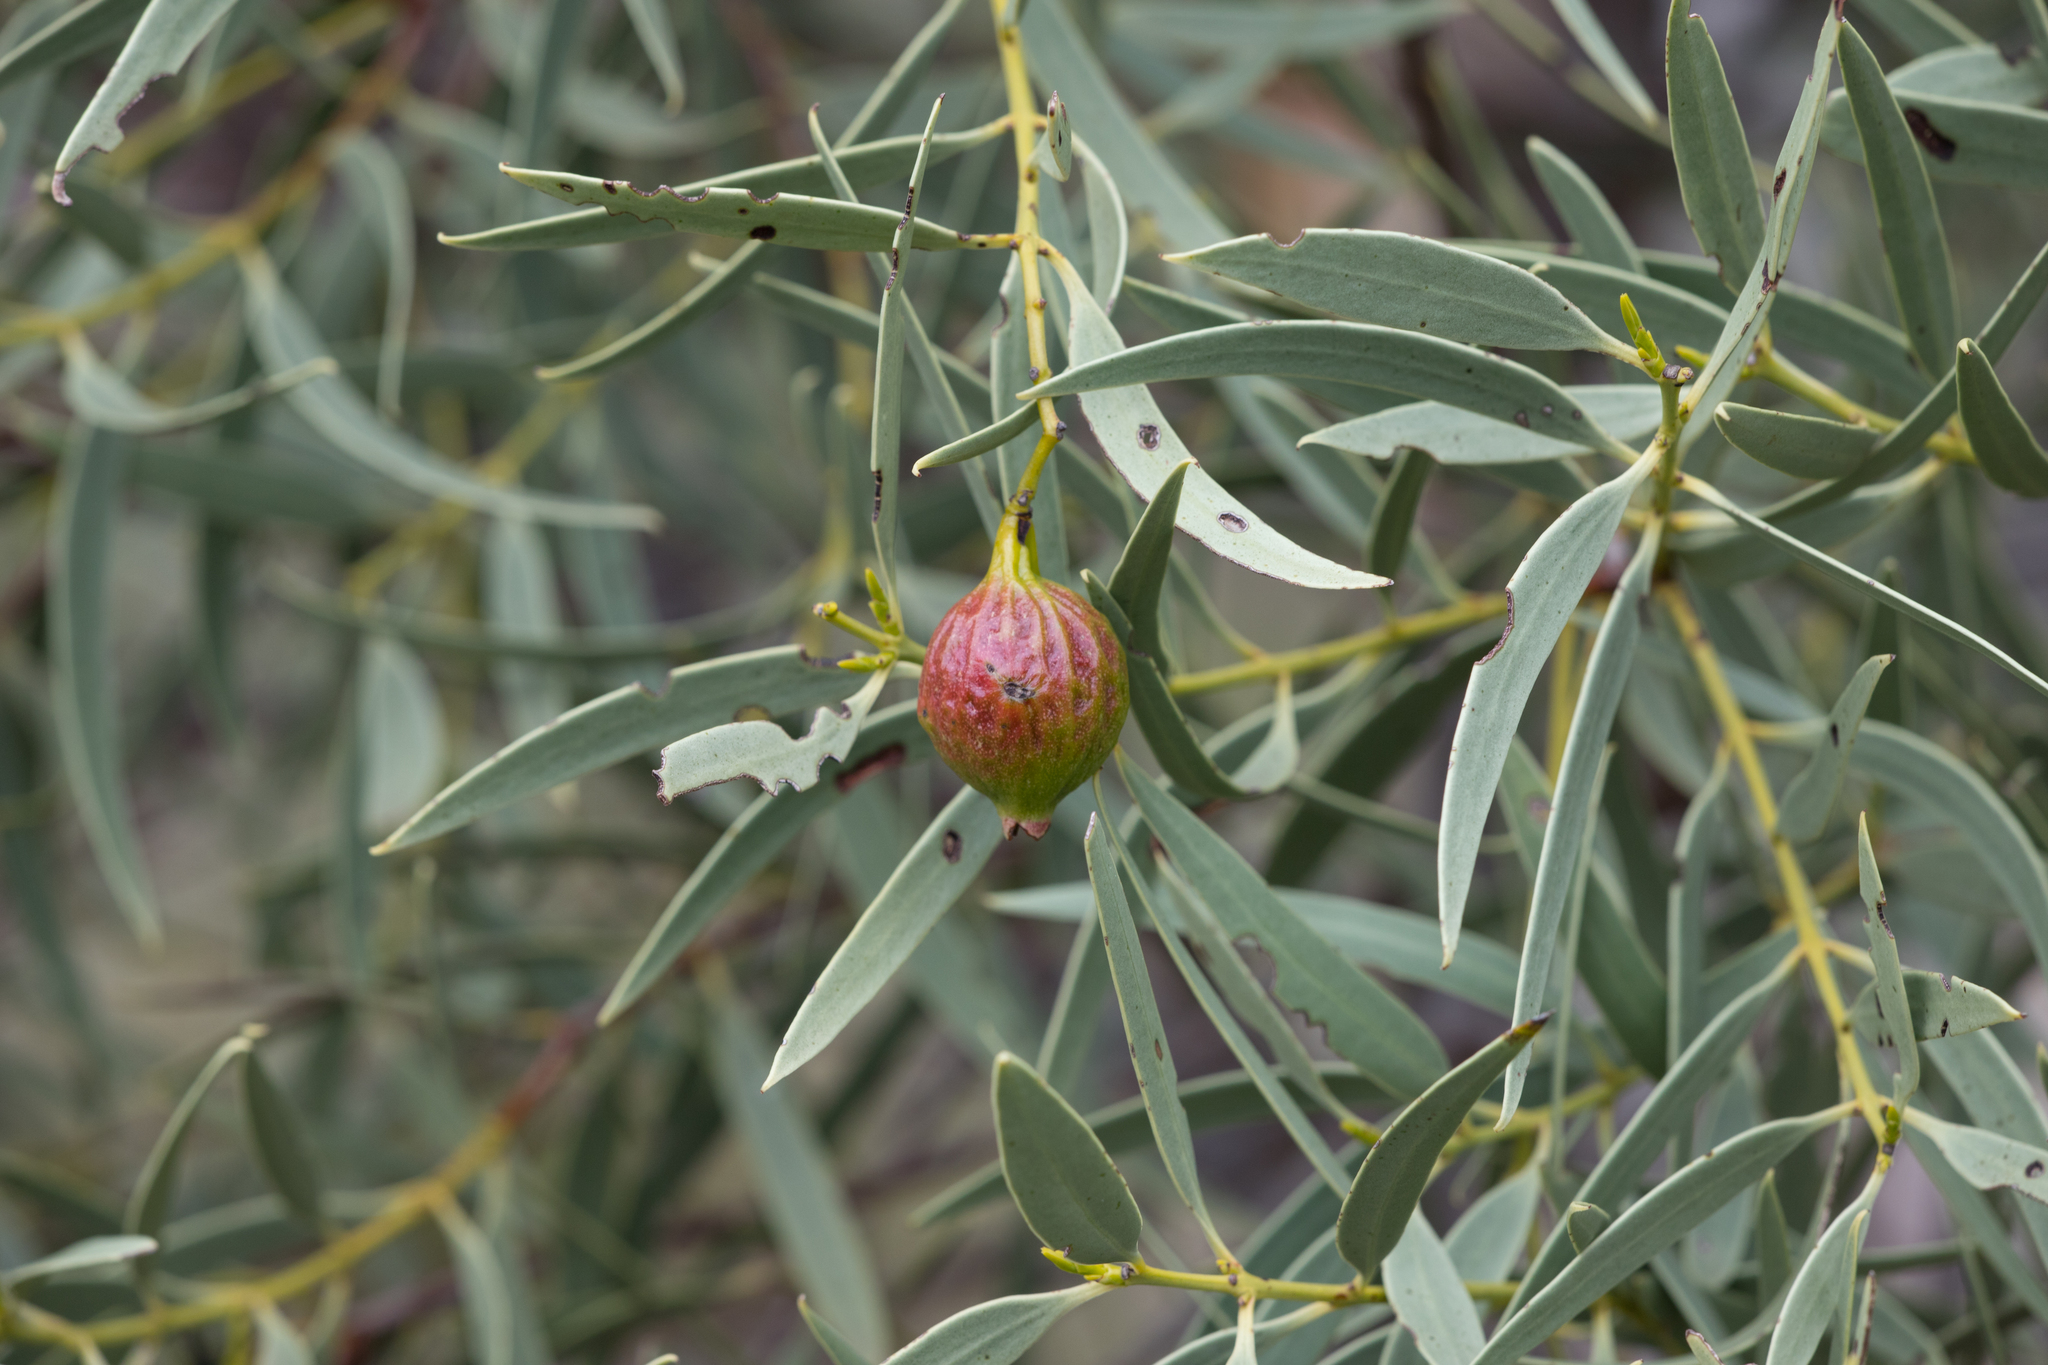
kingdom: Plantae
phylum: Tracheophyta
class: Magnoliopsida
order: Santalales
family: Santalaceae
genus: Santalum
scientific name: Santalum acuminatum
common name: Sweet quandong
